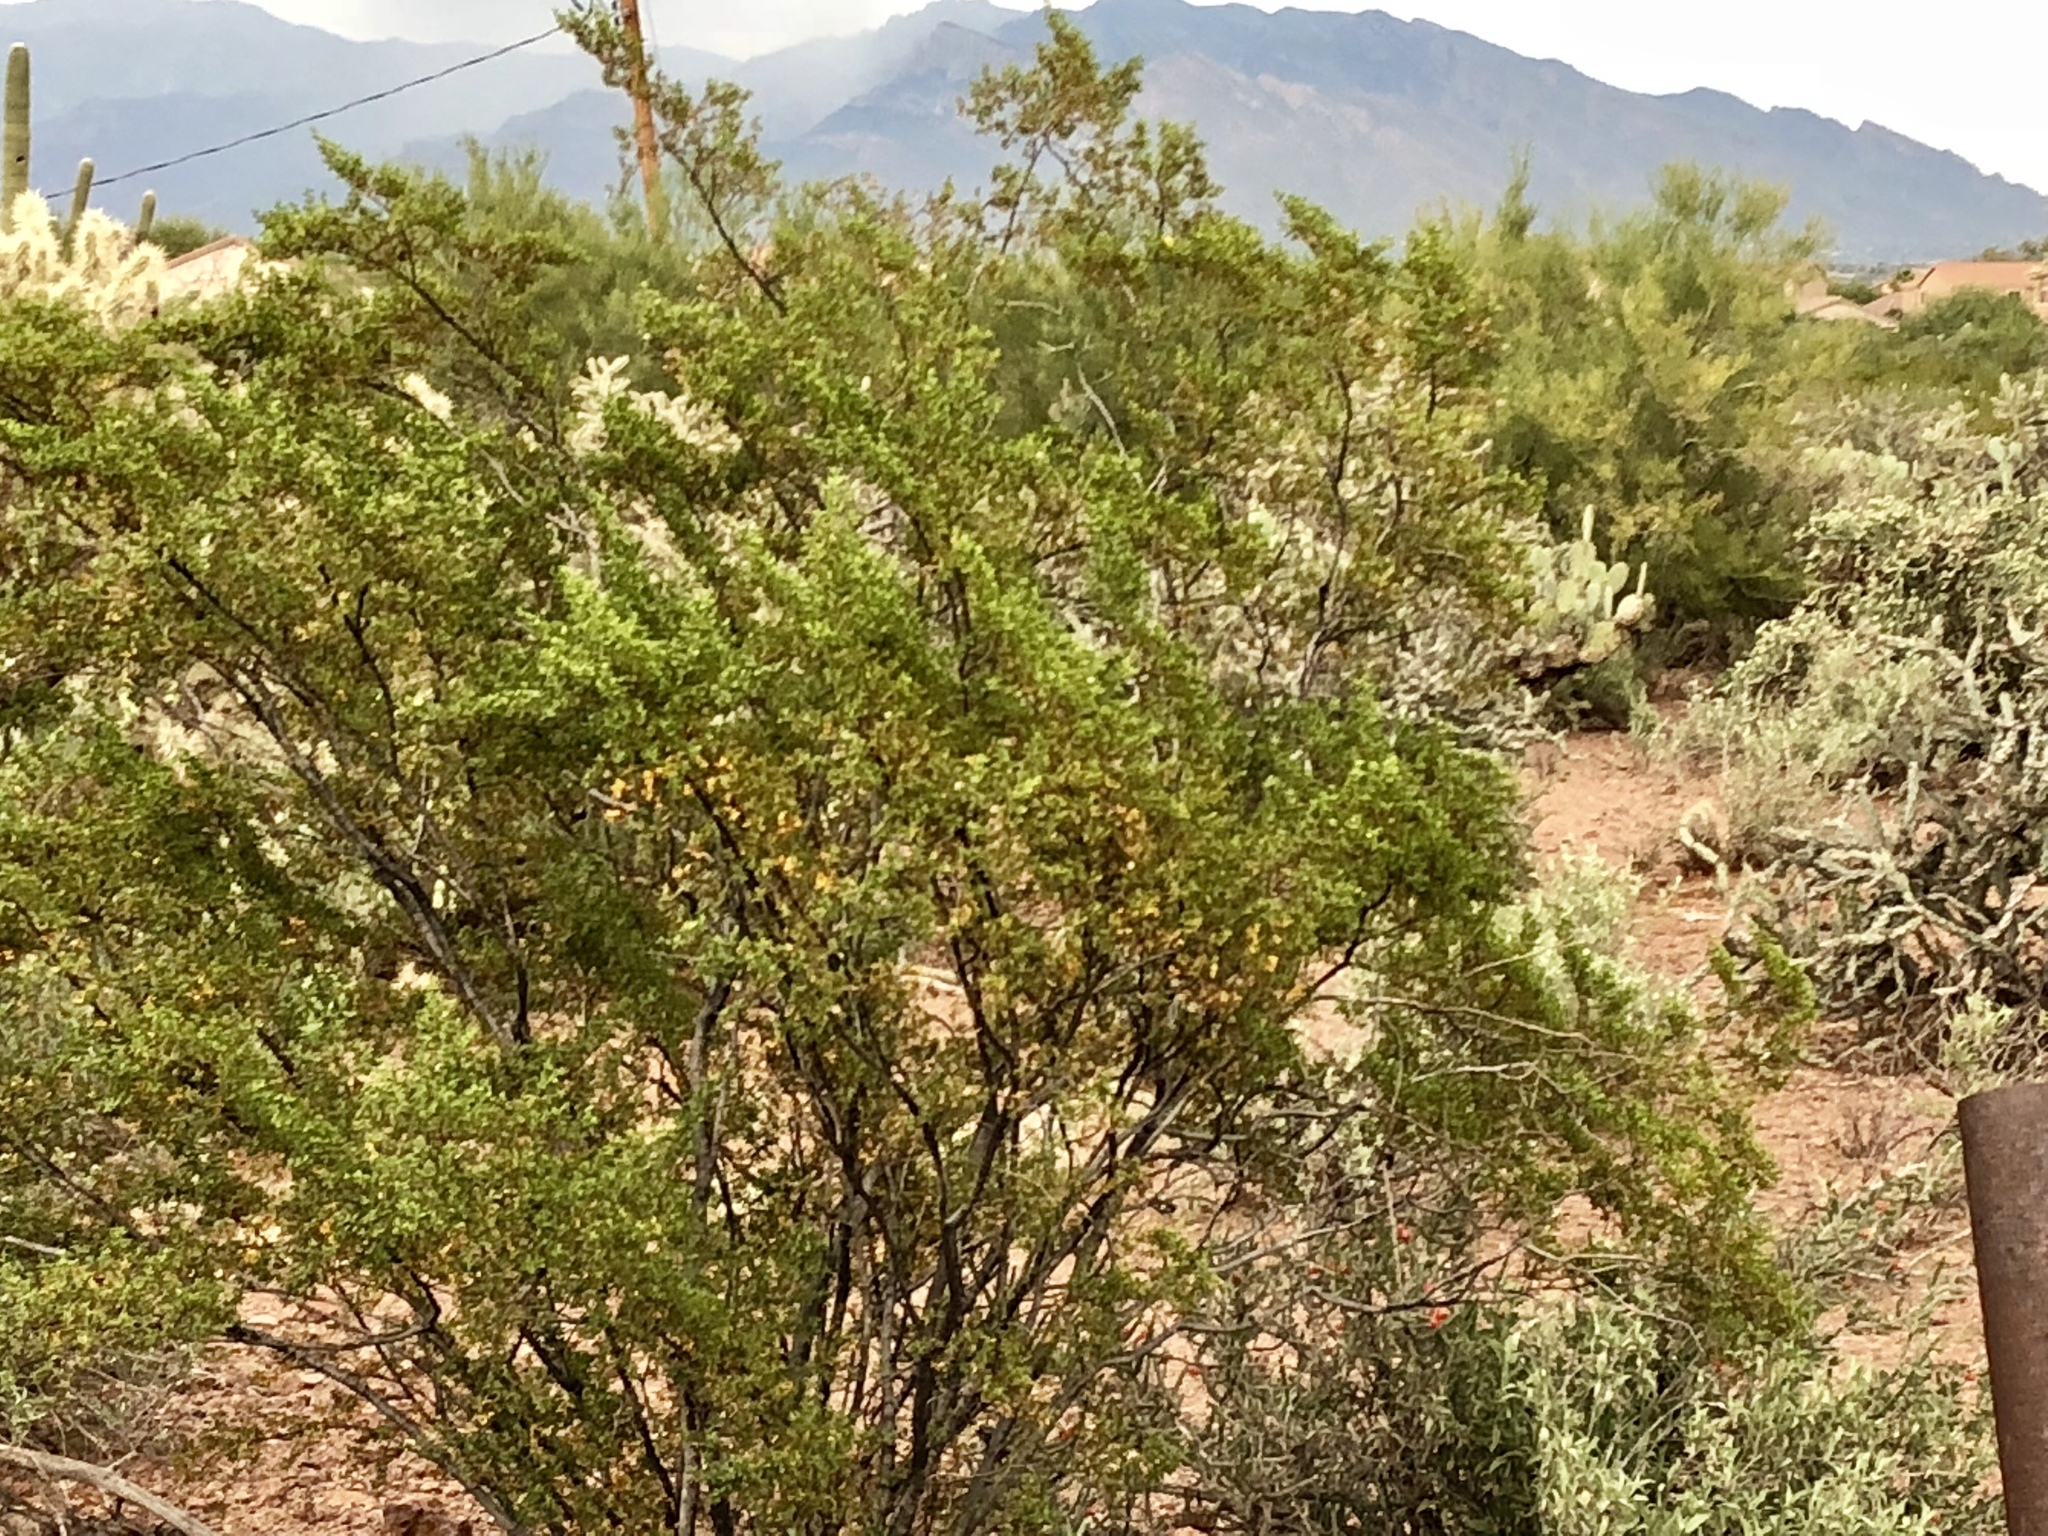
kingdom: Plantae
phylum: Tracheophyta
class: Magnoliopsida
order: Zygophyllales
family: Zygophyllaceae
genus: Larrea
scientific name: Larrea tridentata
